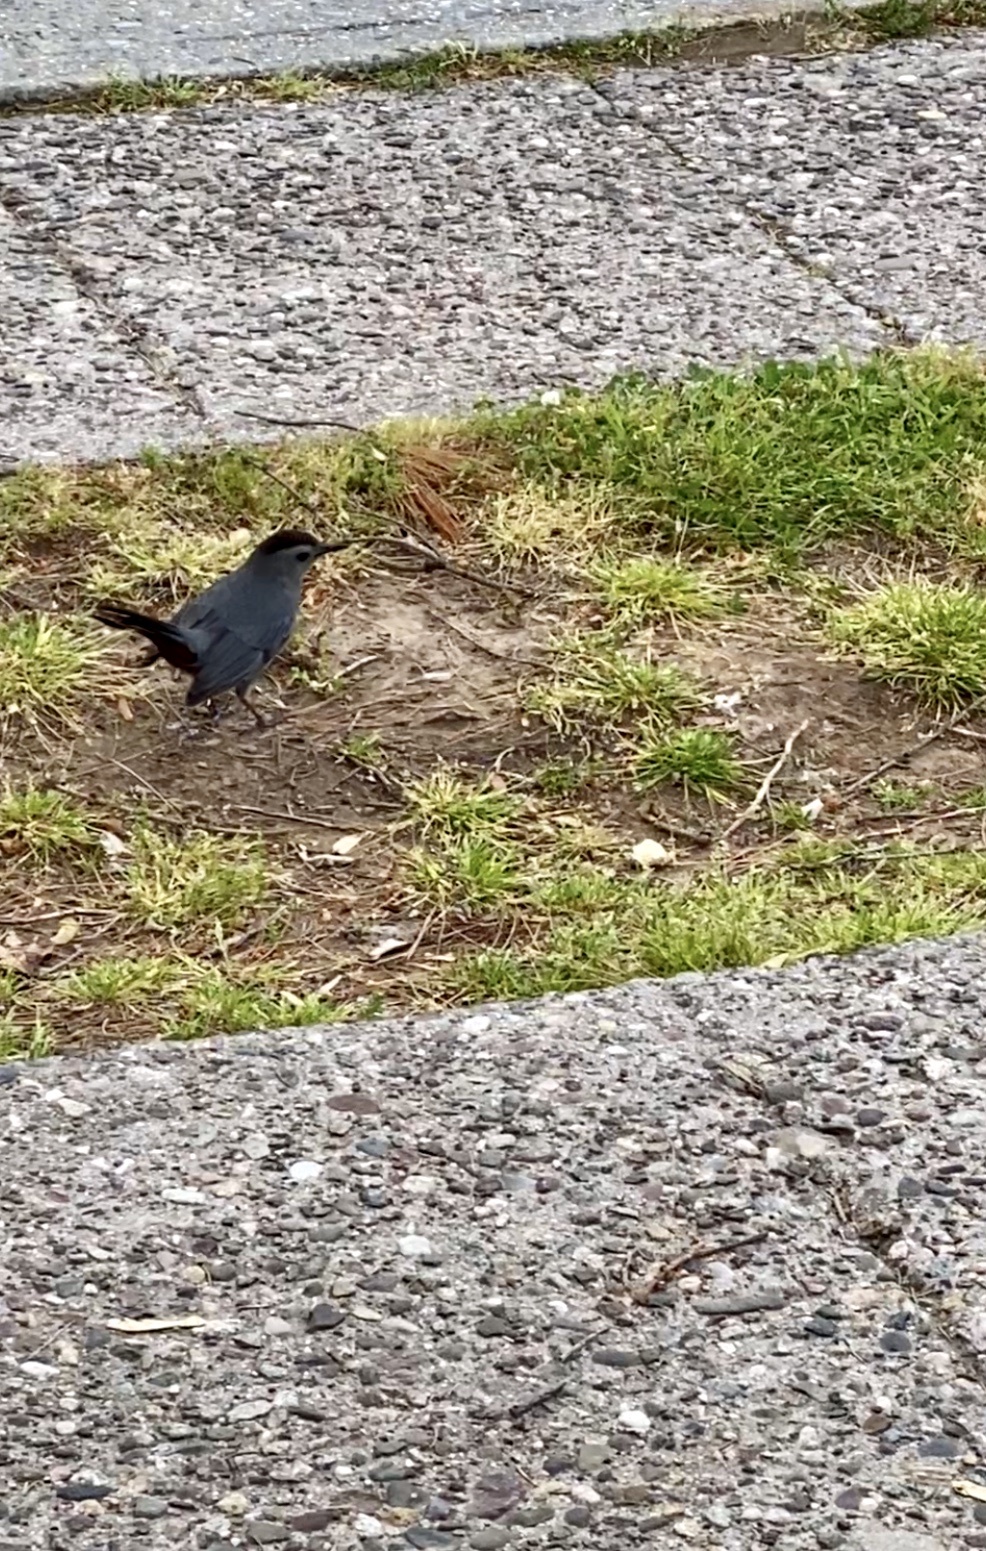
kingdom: Animalia
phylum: Chordata
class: Aves
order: Passeriformes
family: Mimidae
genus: Dumetella
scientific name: Dumetella carolinensis
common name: Gray catbird
